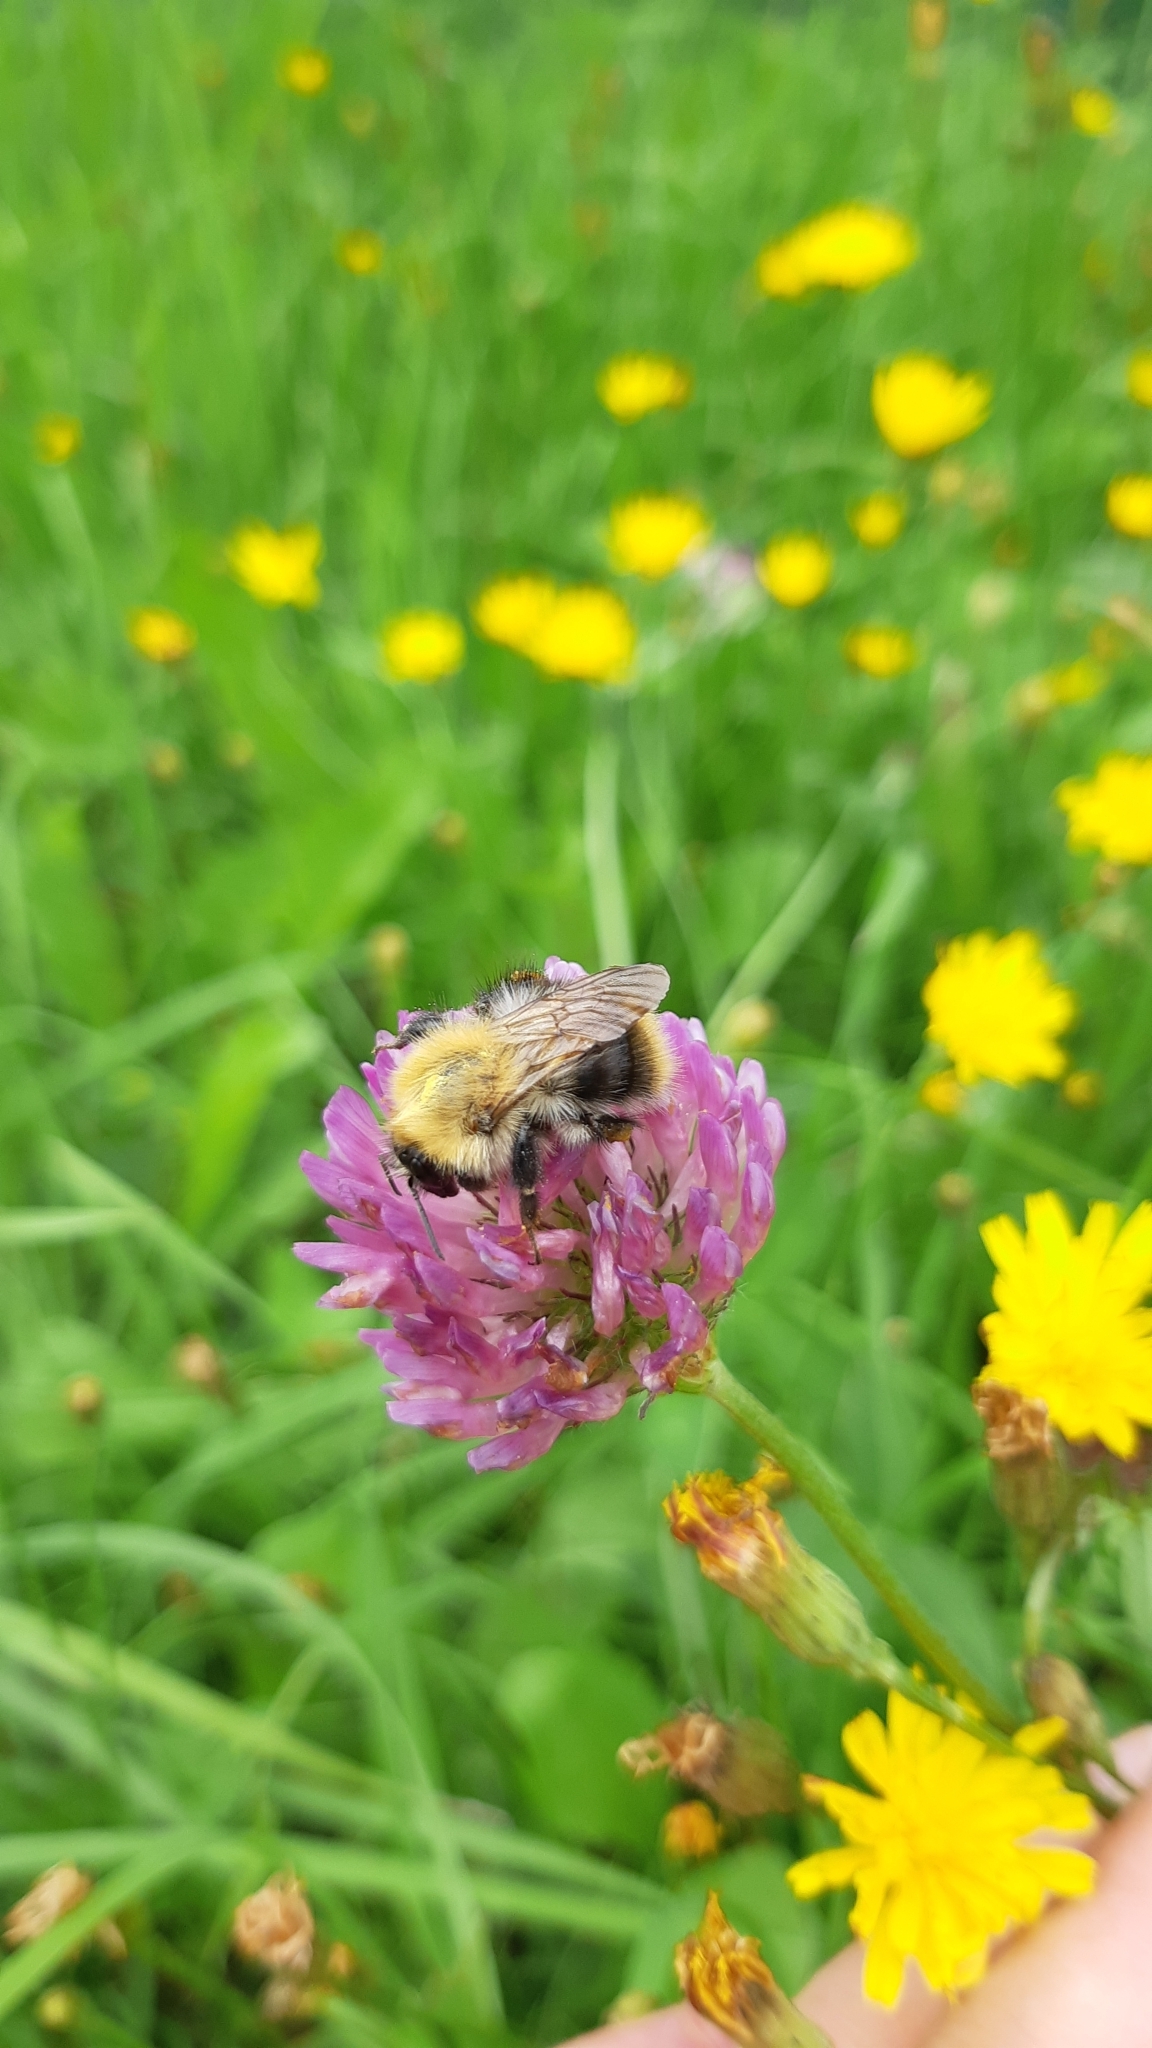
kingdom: Animalia
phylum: Arthropoda
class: Insecta
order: Hymenoptera
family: Apidae
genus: Bombus
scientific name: Bombus pascuorum
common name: Common carder bee
